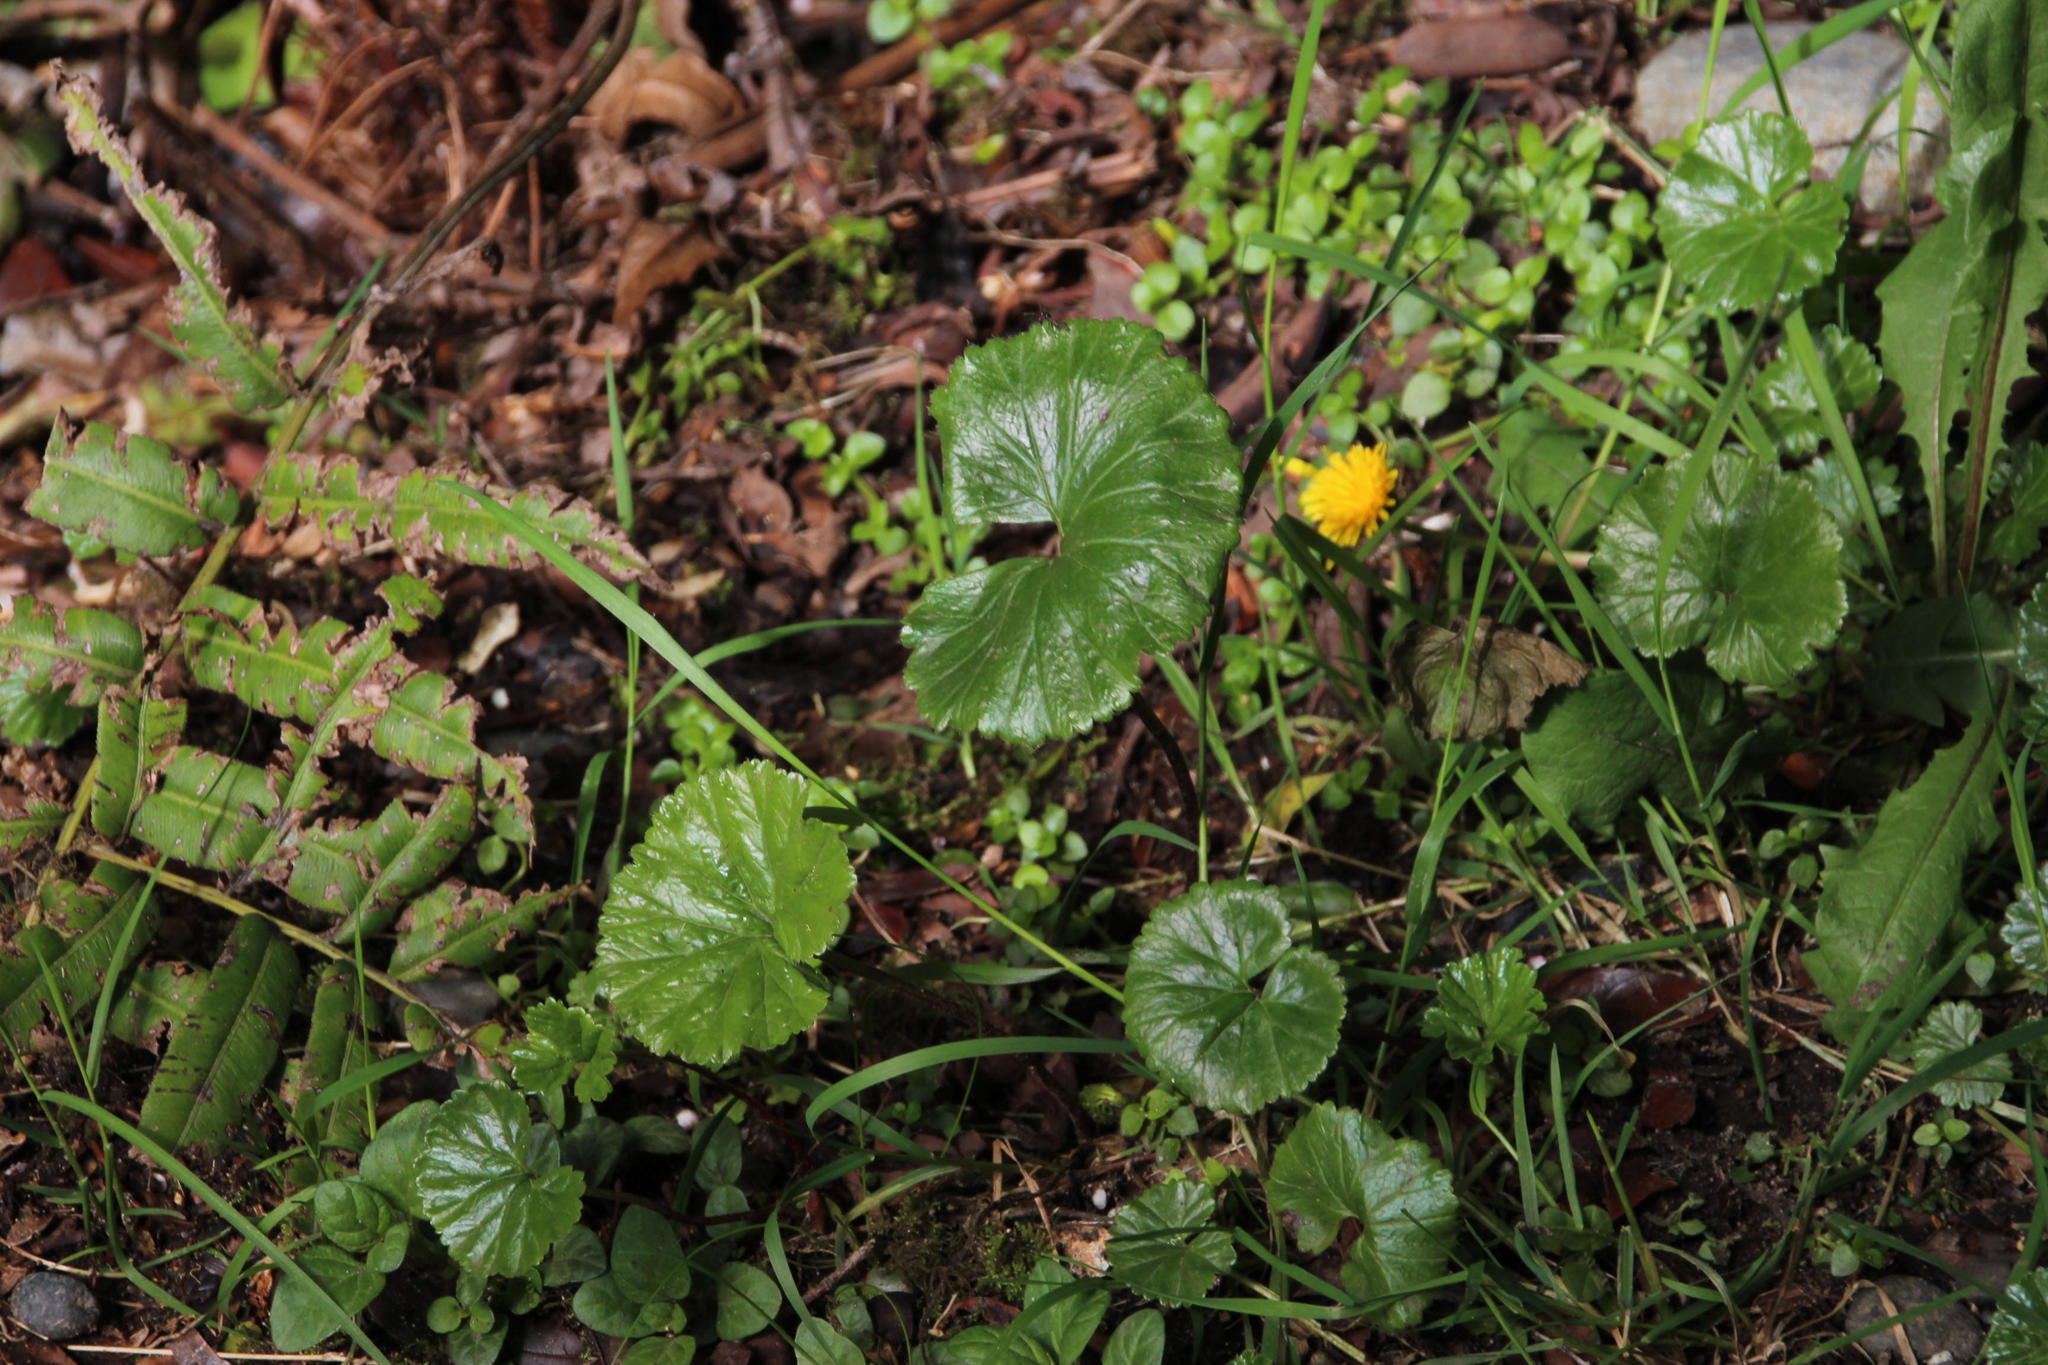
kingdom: Plantae
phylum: Tracheophyta
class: Magnoliopsida
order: Gunnerales
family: Gunneraceae
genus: Gunnera
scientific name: Gunnera magellanica
